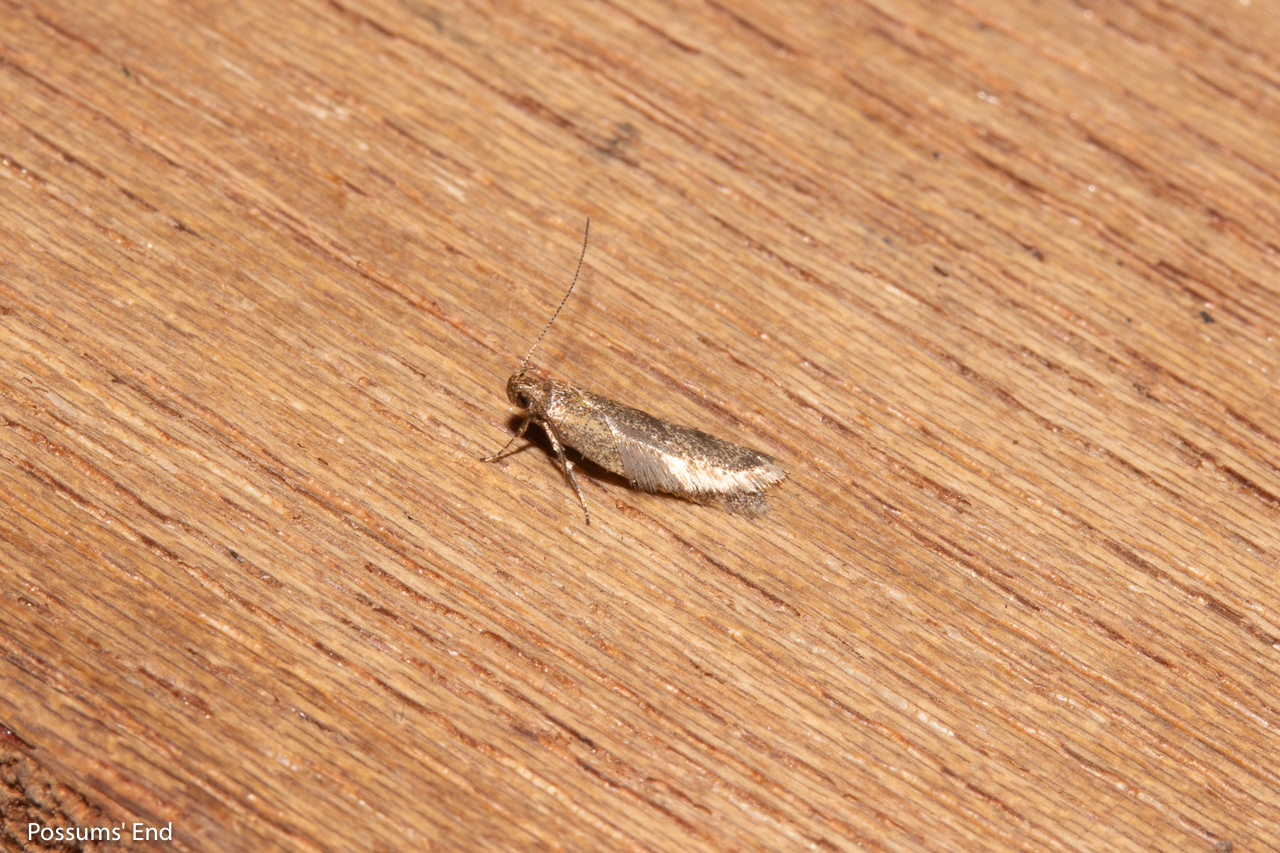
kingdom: Animalia
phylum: Arthropoda
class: Insecta
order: Lepidoptera
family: Oecophoridae
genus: Gymnobathra
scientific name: Gymnobathra tholodella
